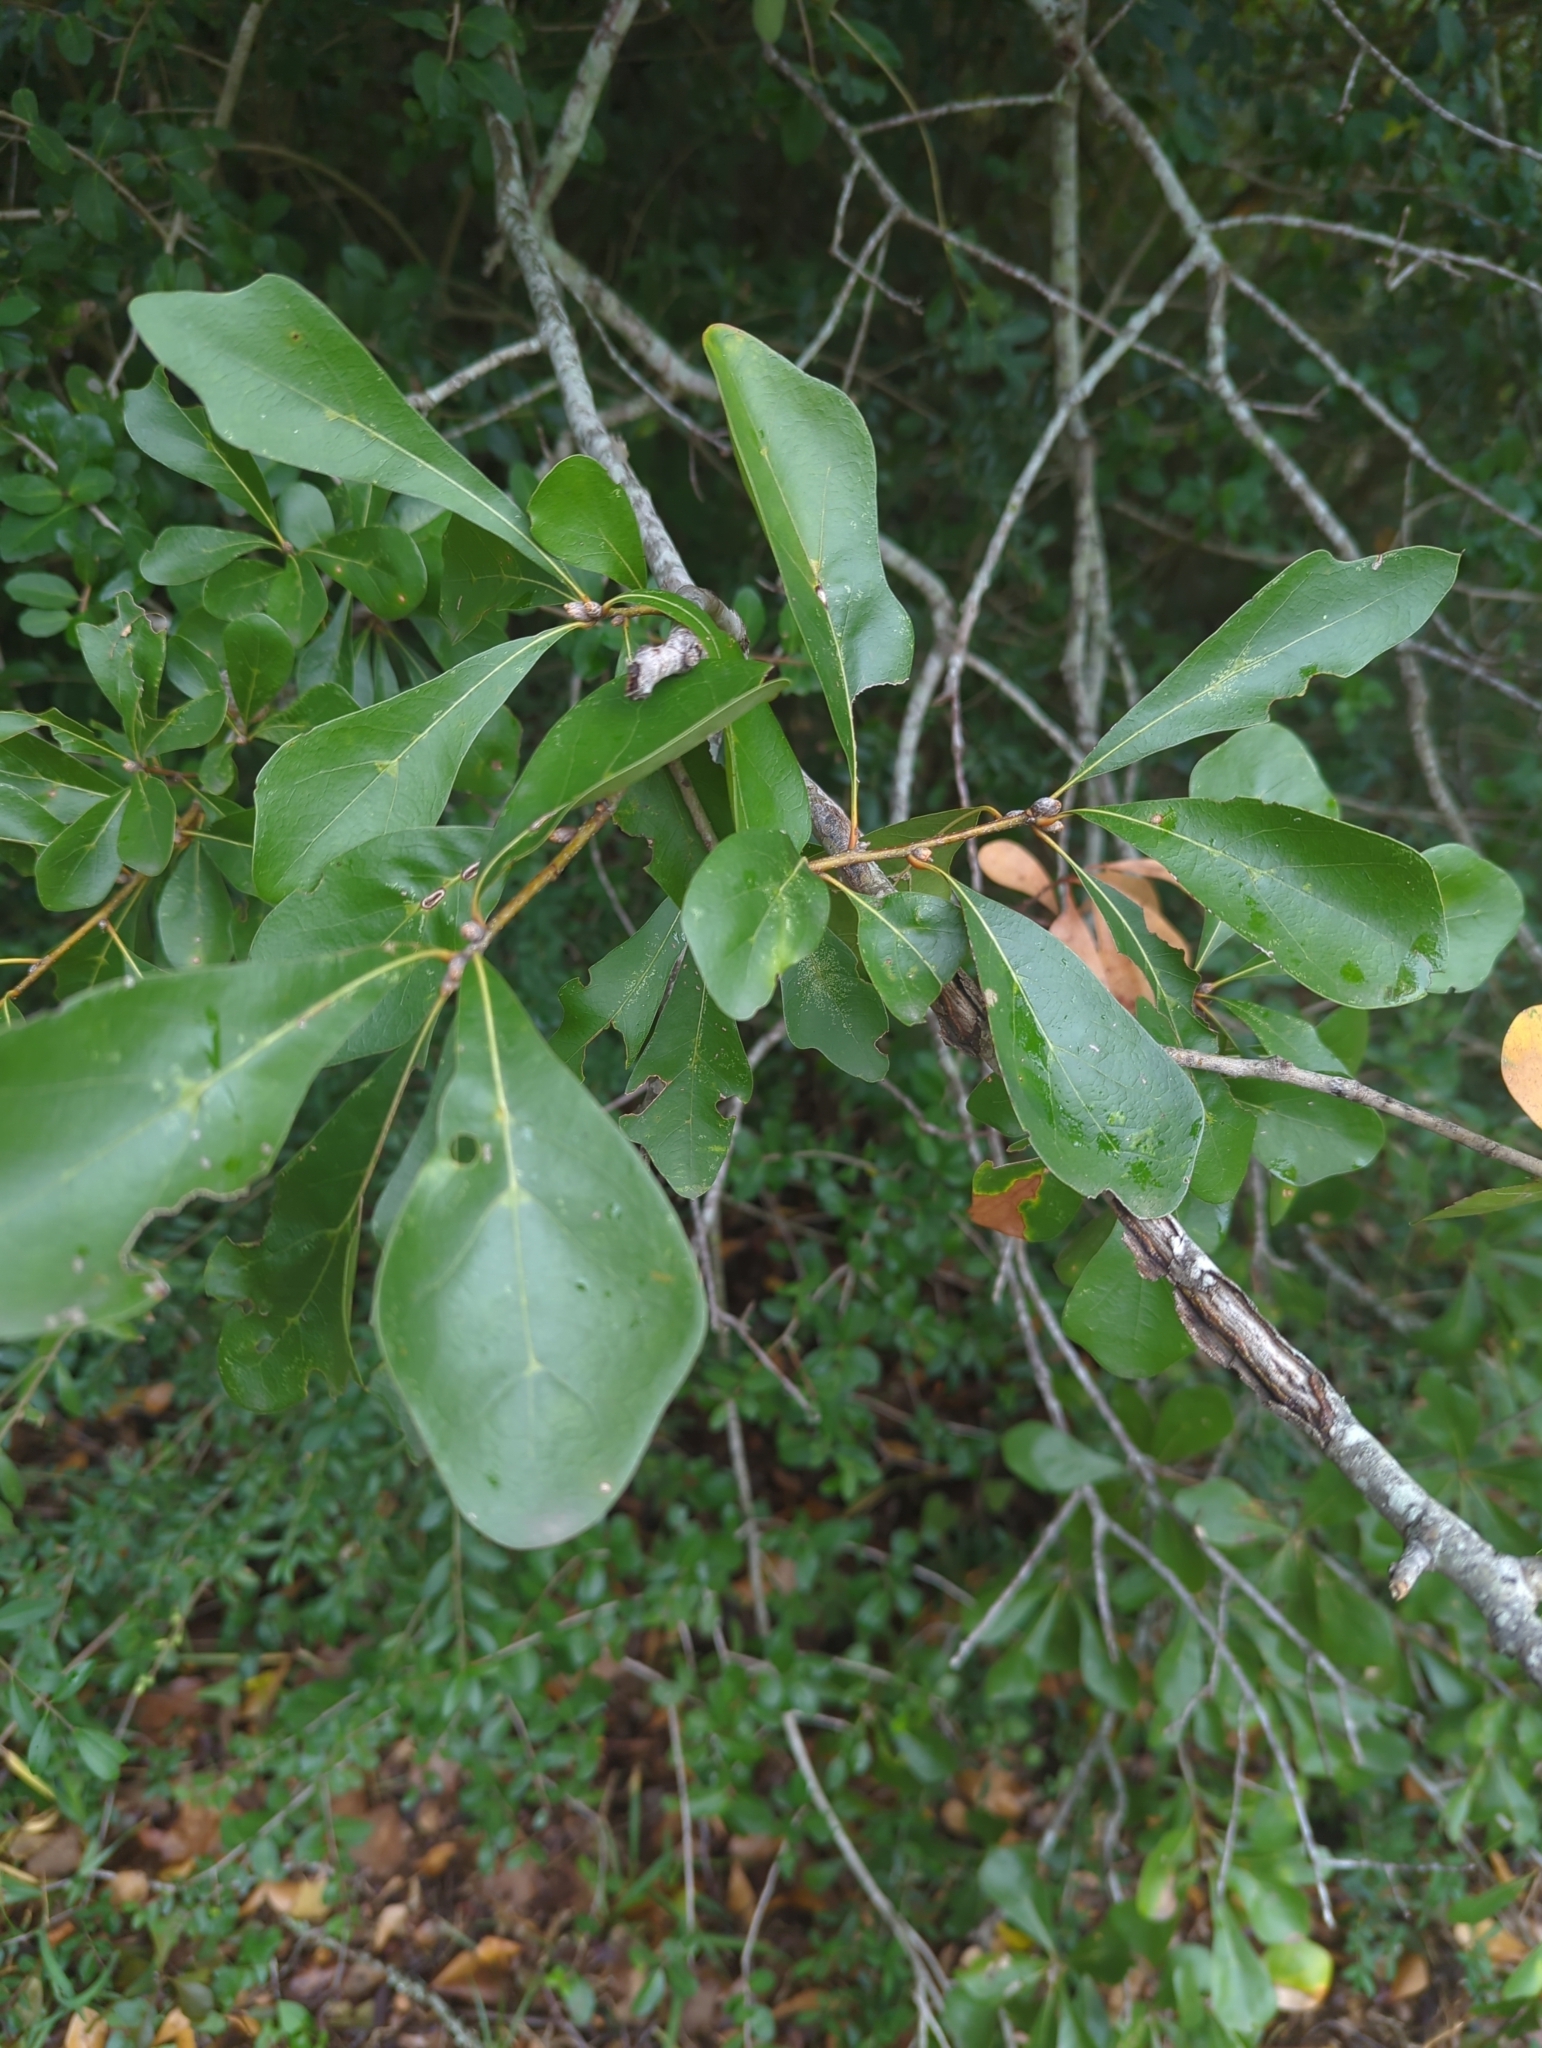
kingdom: Plantae
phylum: Tracheophyta
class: Magnoliopsida
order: Fagales
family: Fagaceae
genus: Quercus
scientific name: Quercus nigra
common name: Water oak
